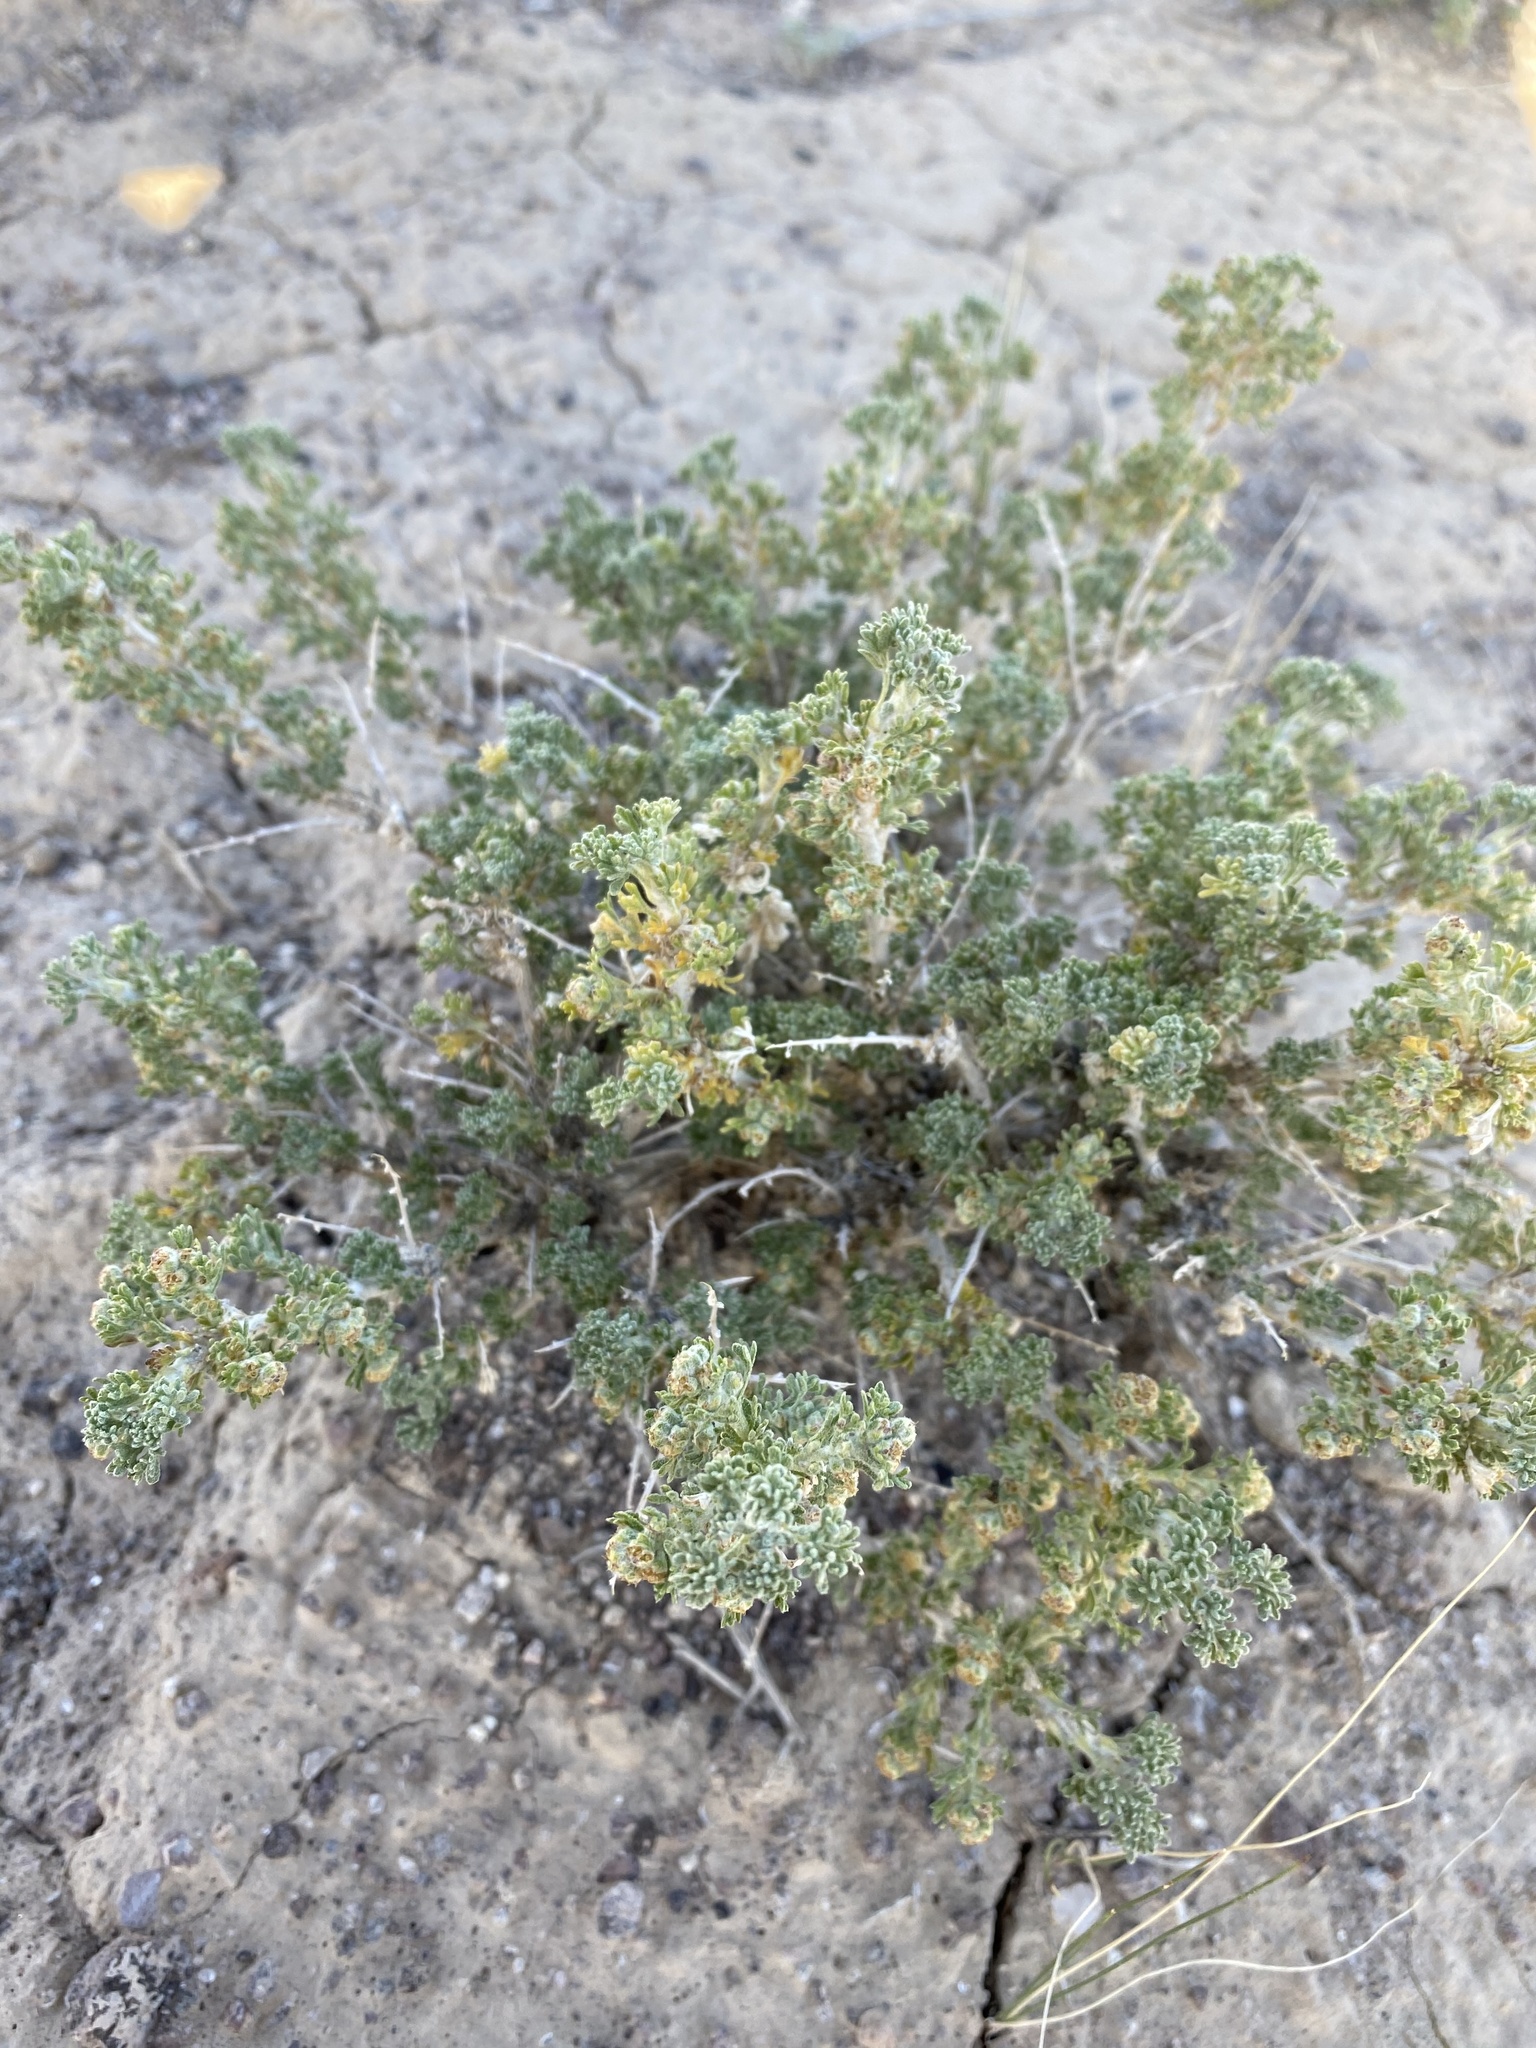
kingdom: Plantae
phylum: Tracheophyta
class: Magnoliopsida
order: Asterales
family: Asteraceae
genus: Artemisia
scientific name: Artemisia spinescens
